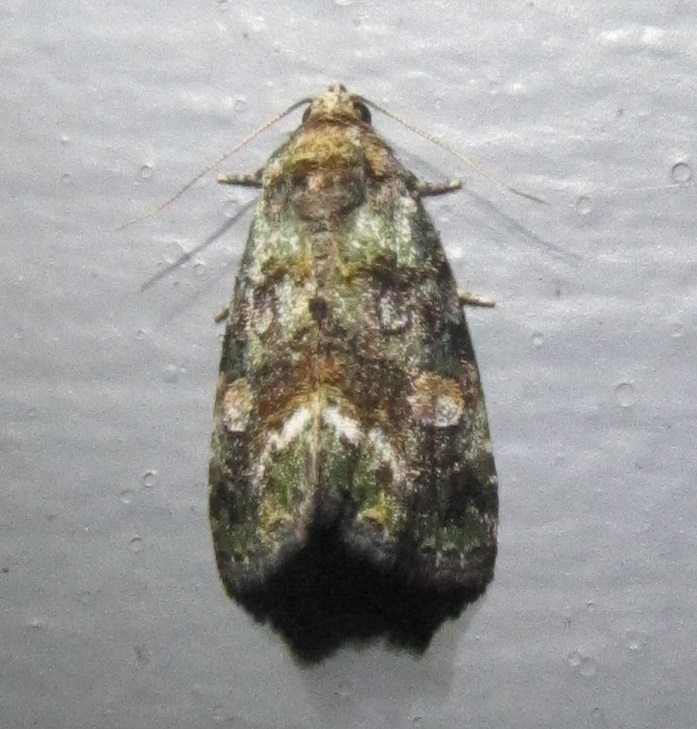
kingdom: Animalia
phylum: Arthropoda
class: Insecta
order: Lepidoptera
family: Noctuidae
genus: Lithacodia
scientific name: Lithacodia musta
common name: Small mossy glyph
